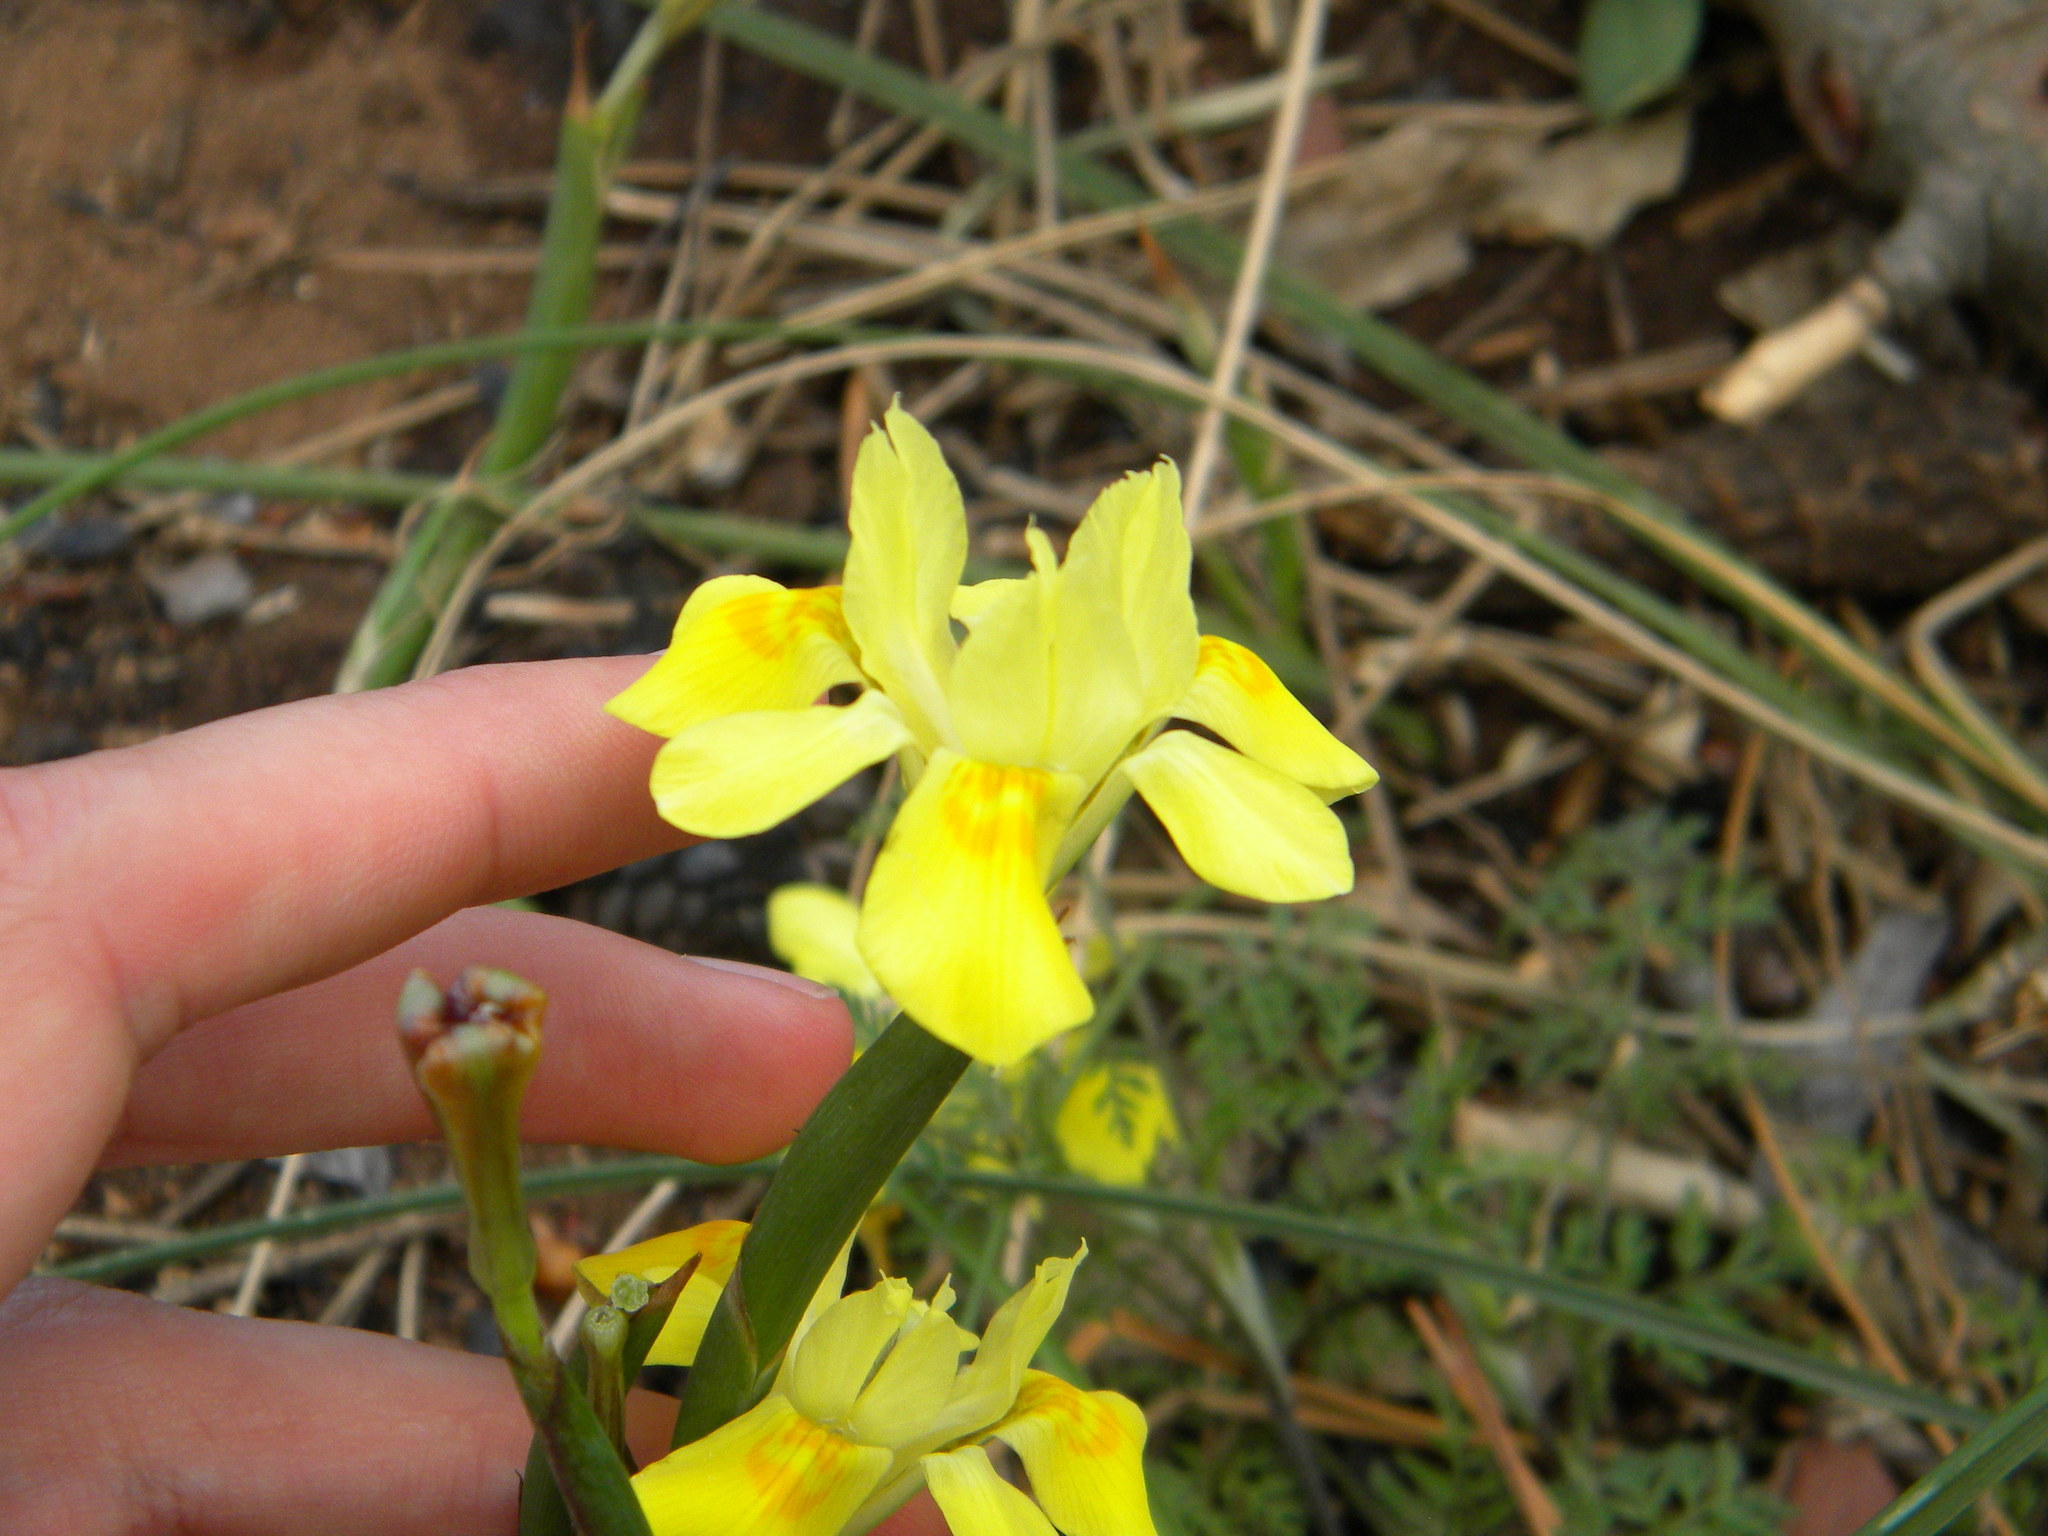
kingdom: Plantae
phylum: Tracheophyta
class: Liliopsida
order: Asparagales
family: Iridaceae
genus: Moraea
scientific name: Moraea fugax
